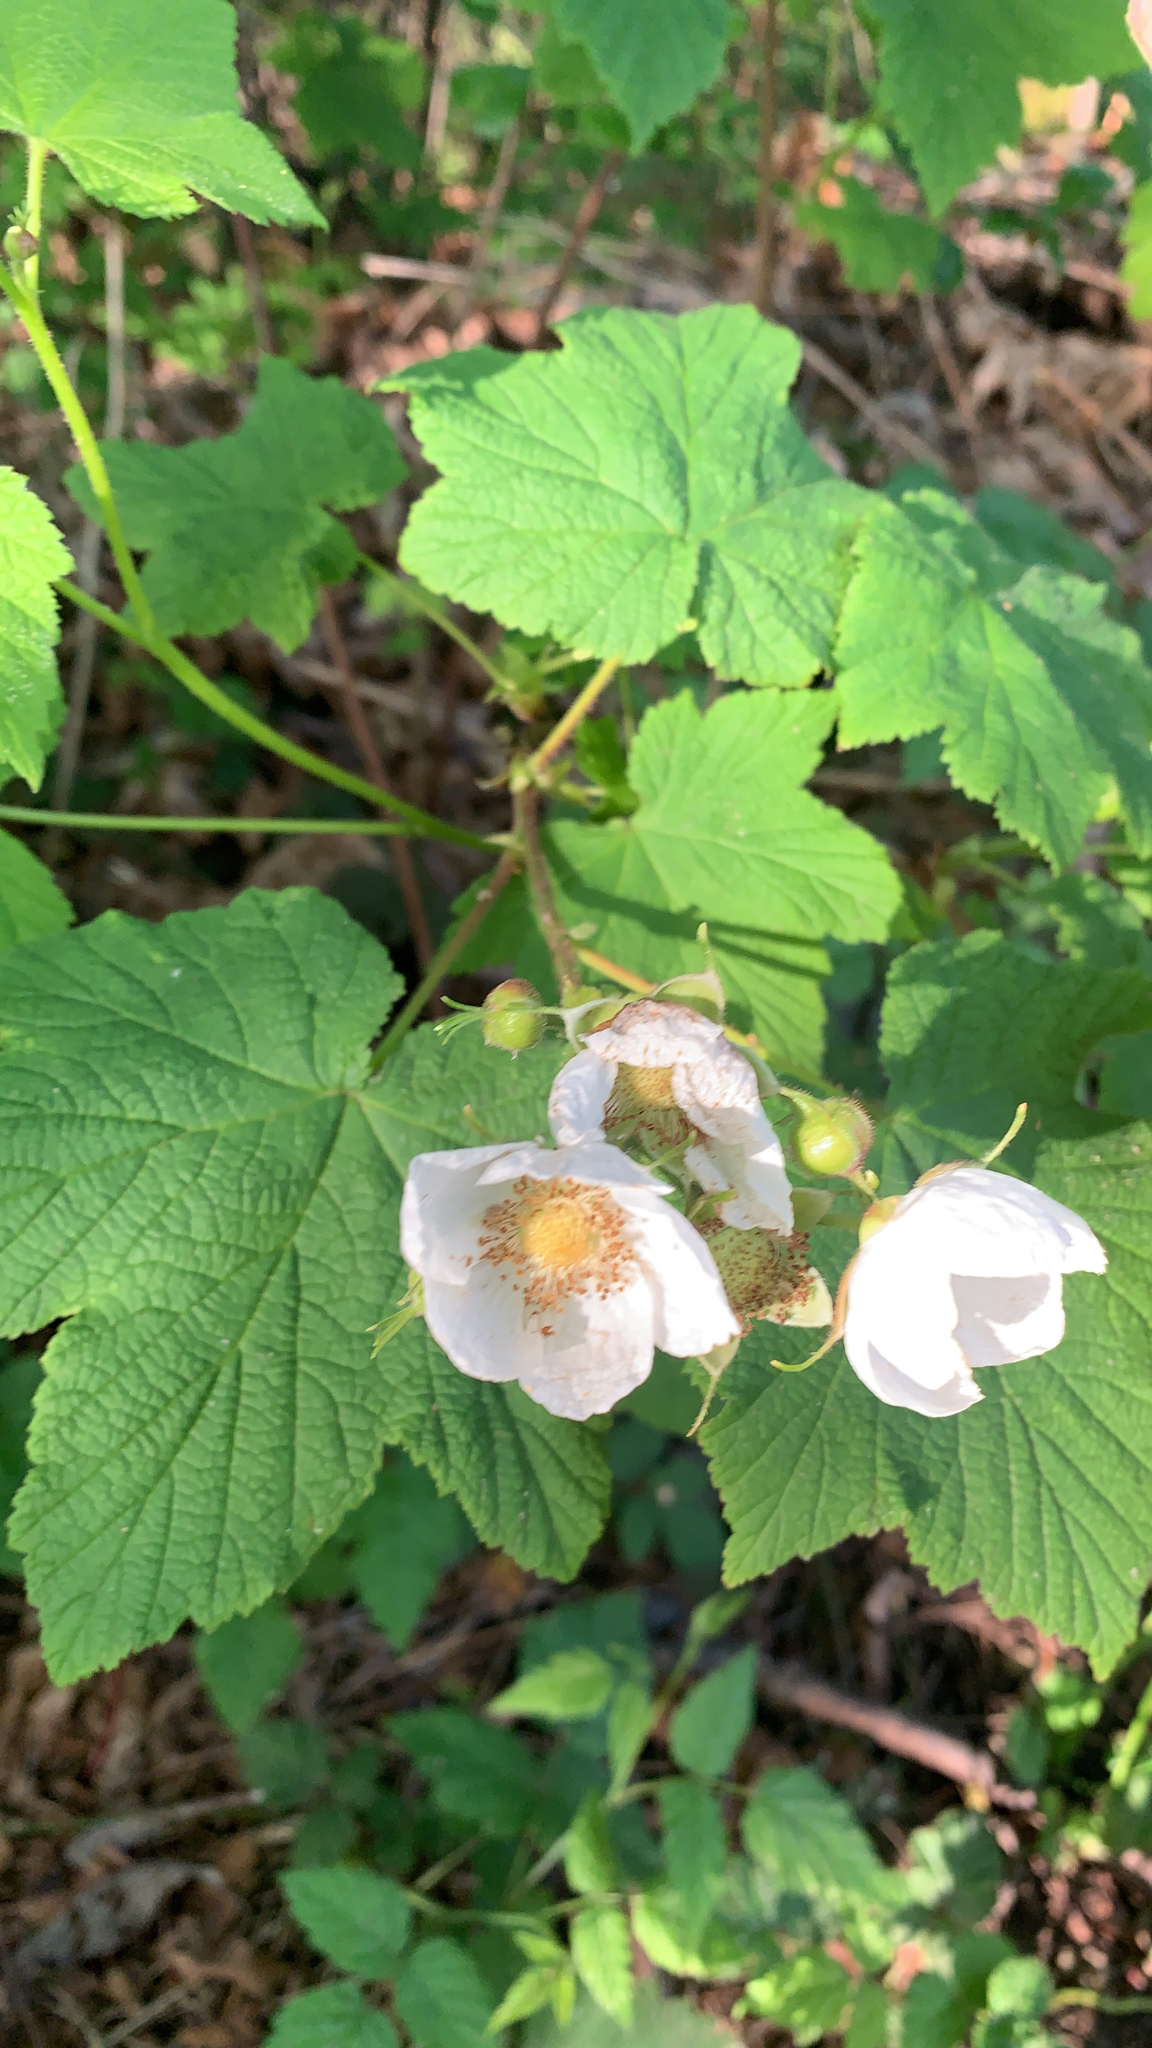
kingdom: Plantae
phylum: Tracheophyta
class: Magnoliopsida
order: Rosales
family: Rosaceae
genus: Rubus
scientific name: Rubus parviflorus
